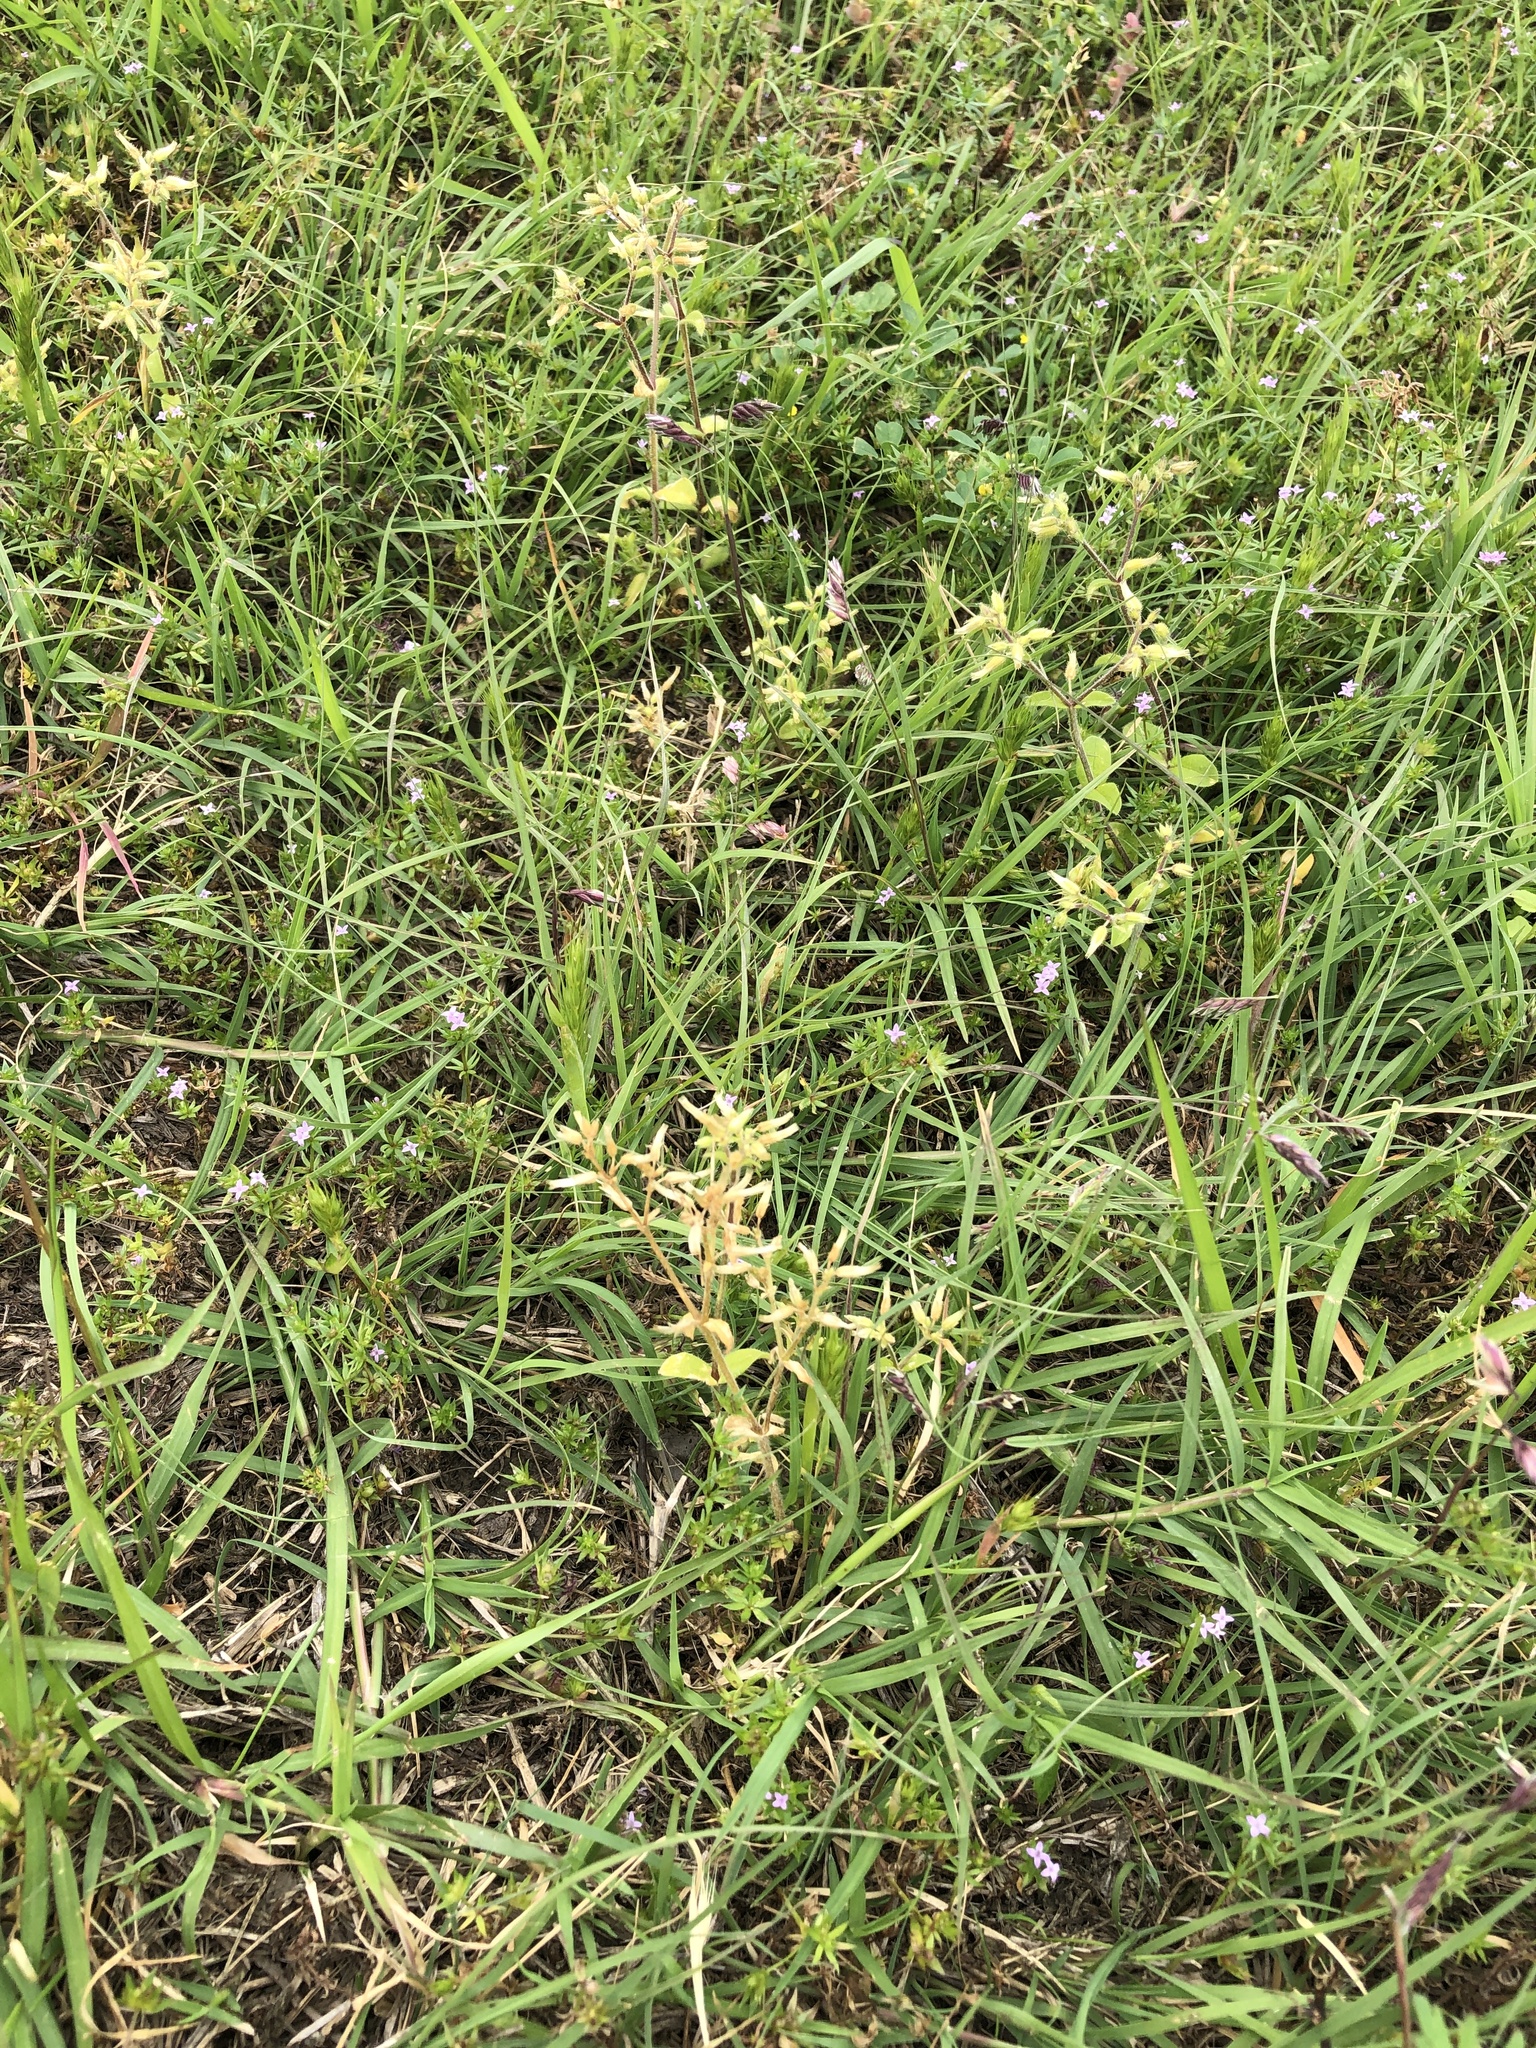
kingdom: Plantae
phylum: Tracheophyta
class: Magnoliopsida
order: Caryophyllales
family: Caryophyllaceae
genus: Cerastium
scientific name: Cerastium glomeratum
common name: Sticky chickweed
